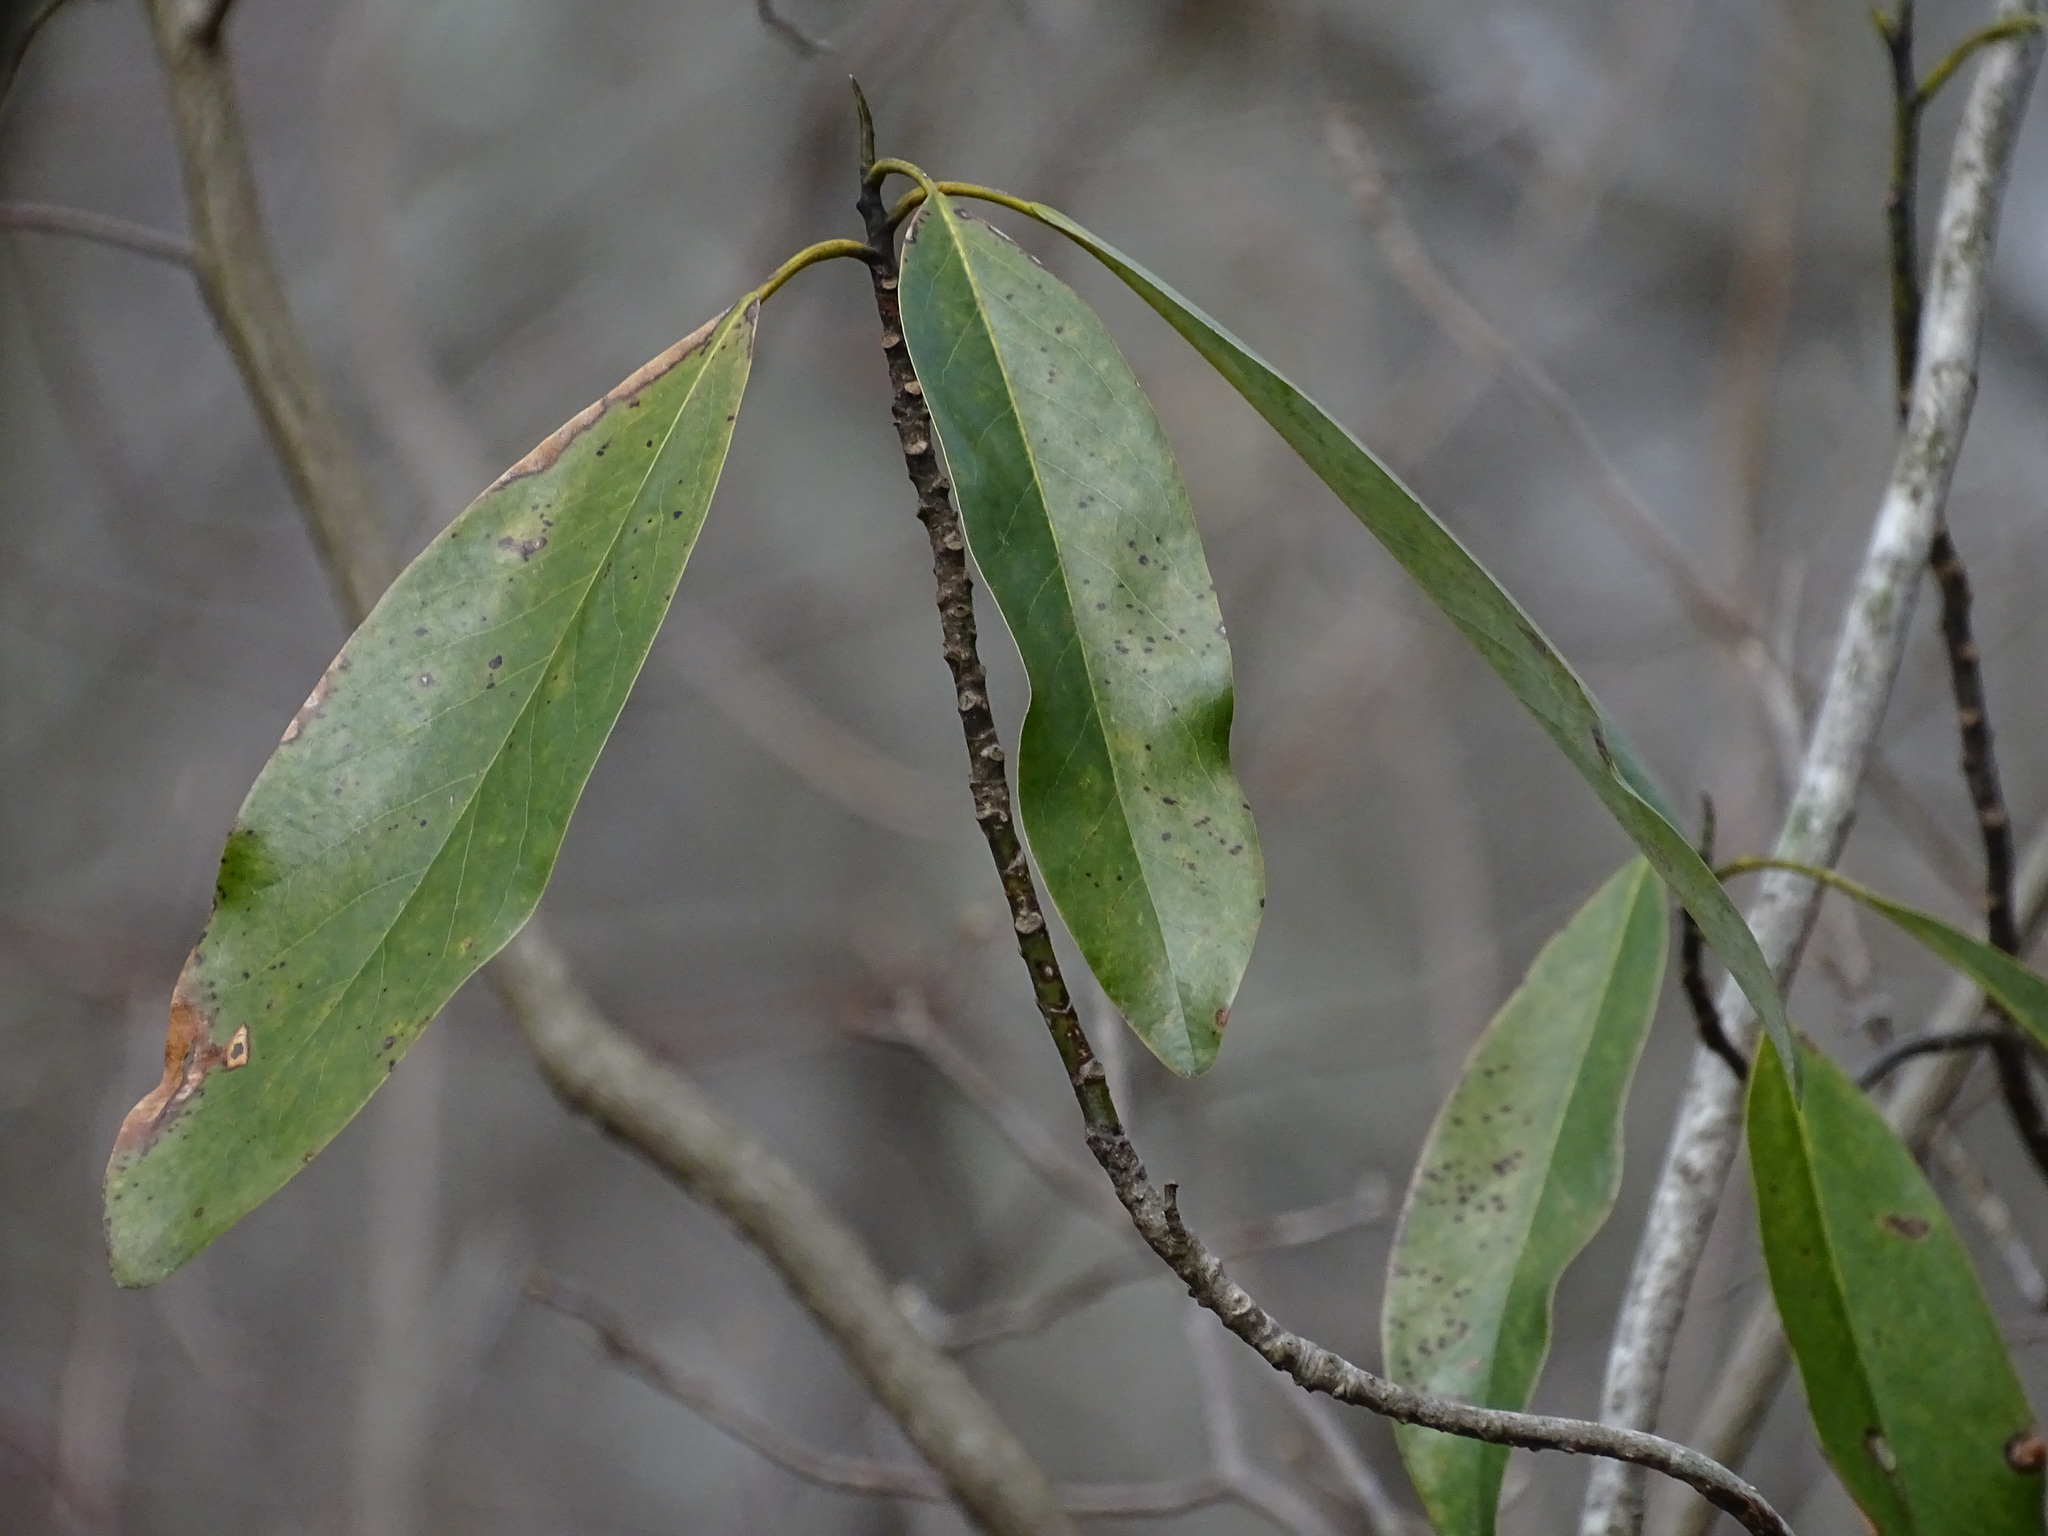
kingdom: Plantae
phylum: Tracheophyta
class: Magnoliopsida
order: Ericales
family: Ericaceae
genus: Kalmia
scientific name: Kalmia latifolia
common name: Mountain-laurel
